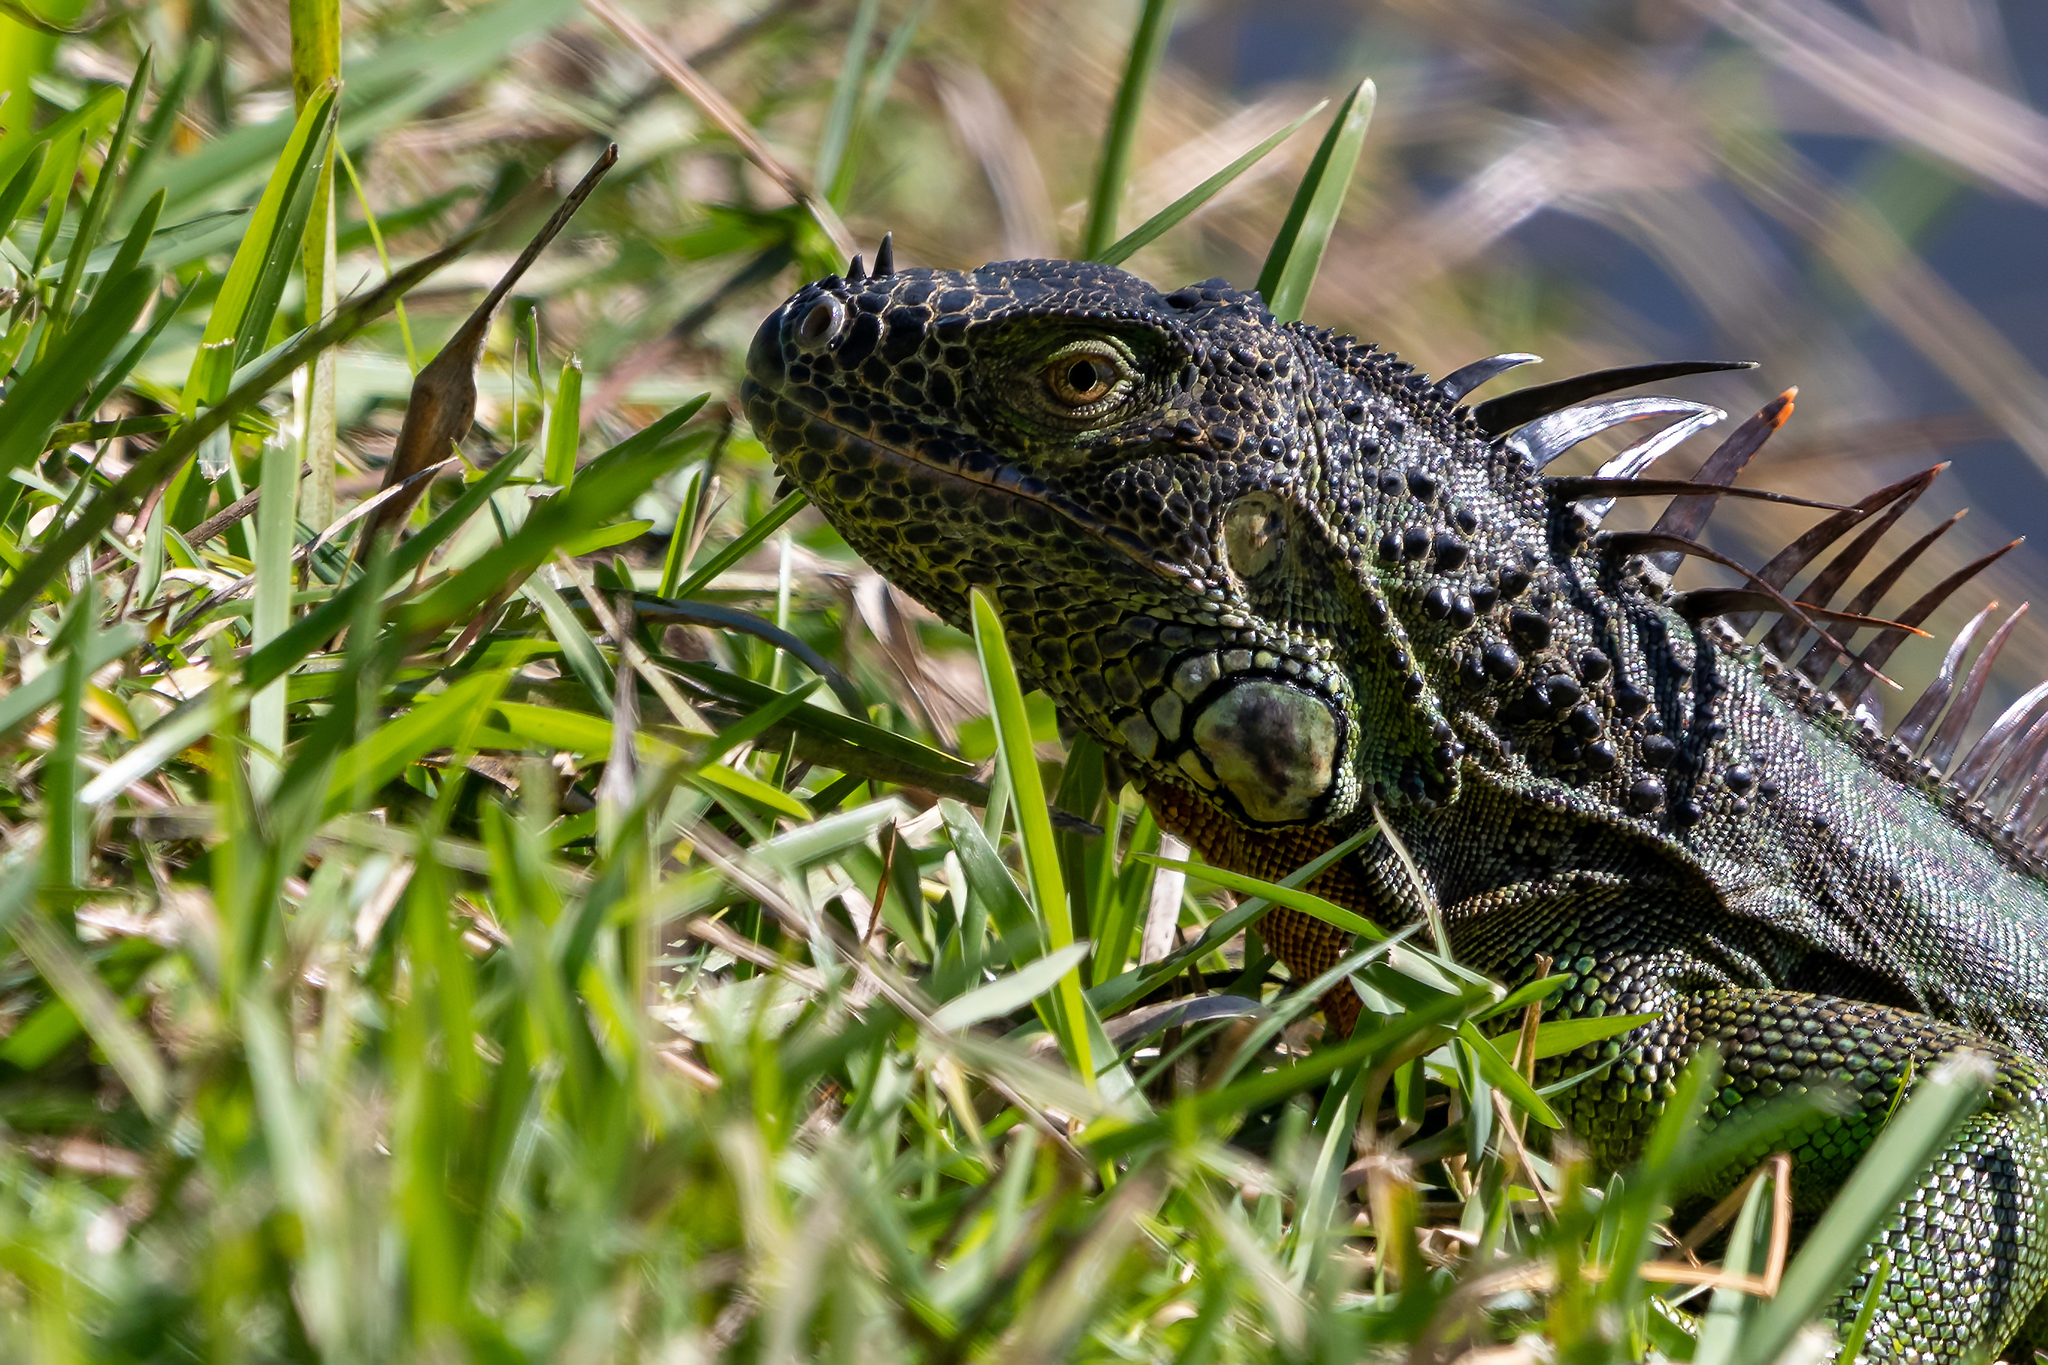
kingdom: Animalia
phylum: Chordata
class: Squamata
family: Iguanidae
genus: Iguana
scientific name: Iguana iguana
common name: Green iguana
